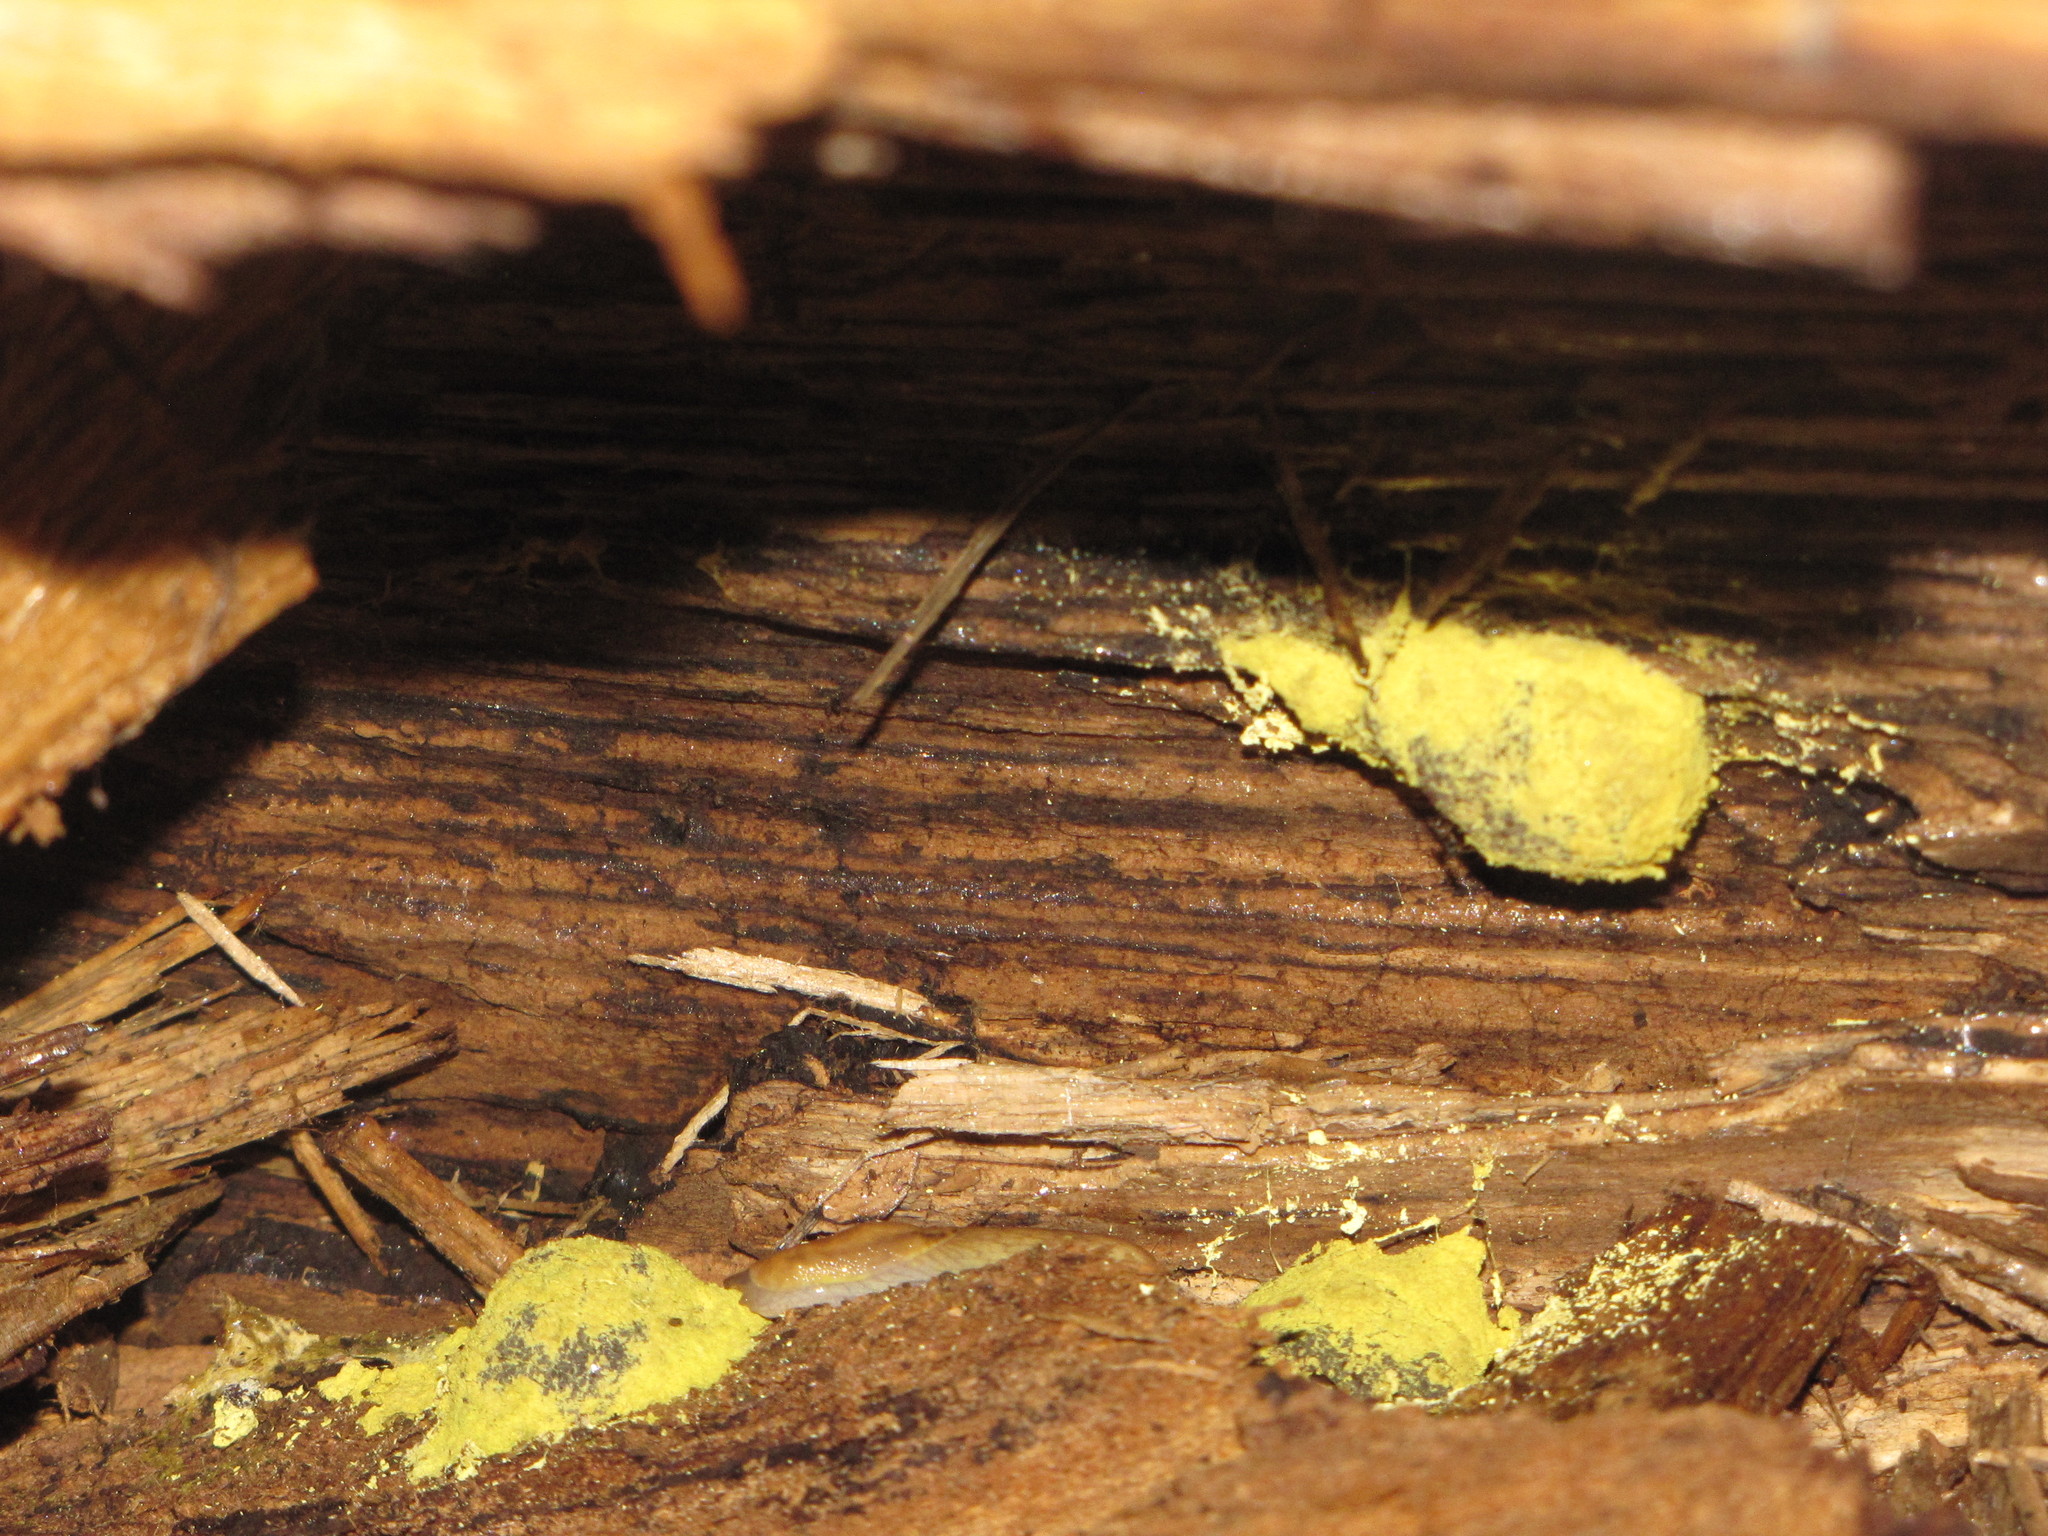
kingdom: Protozoa
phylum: Mycetozoa
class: Myxomycetes
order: Physarales
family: Physaraceae
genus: Fuligo
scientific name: Fuligo septica
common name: Dog vomit slime mold
